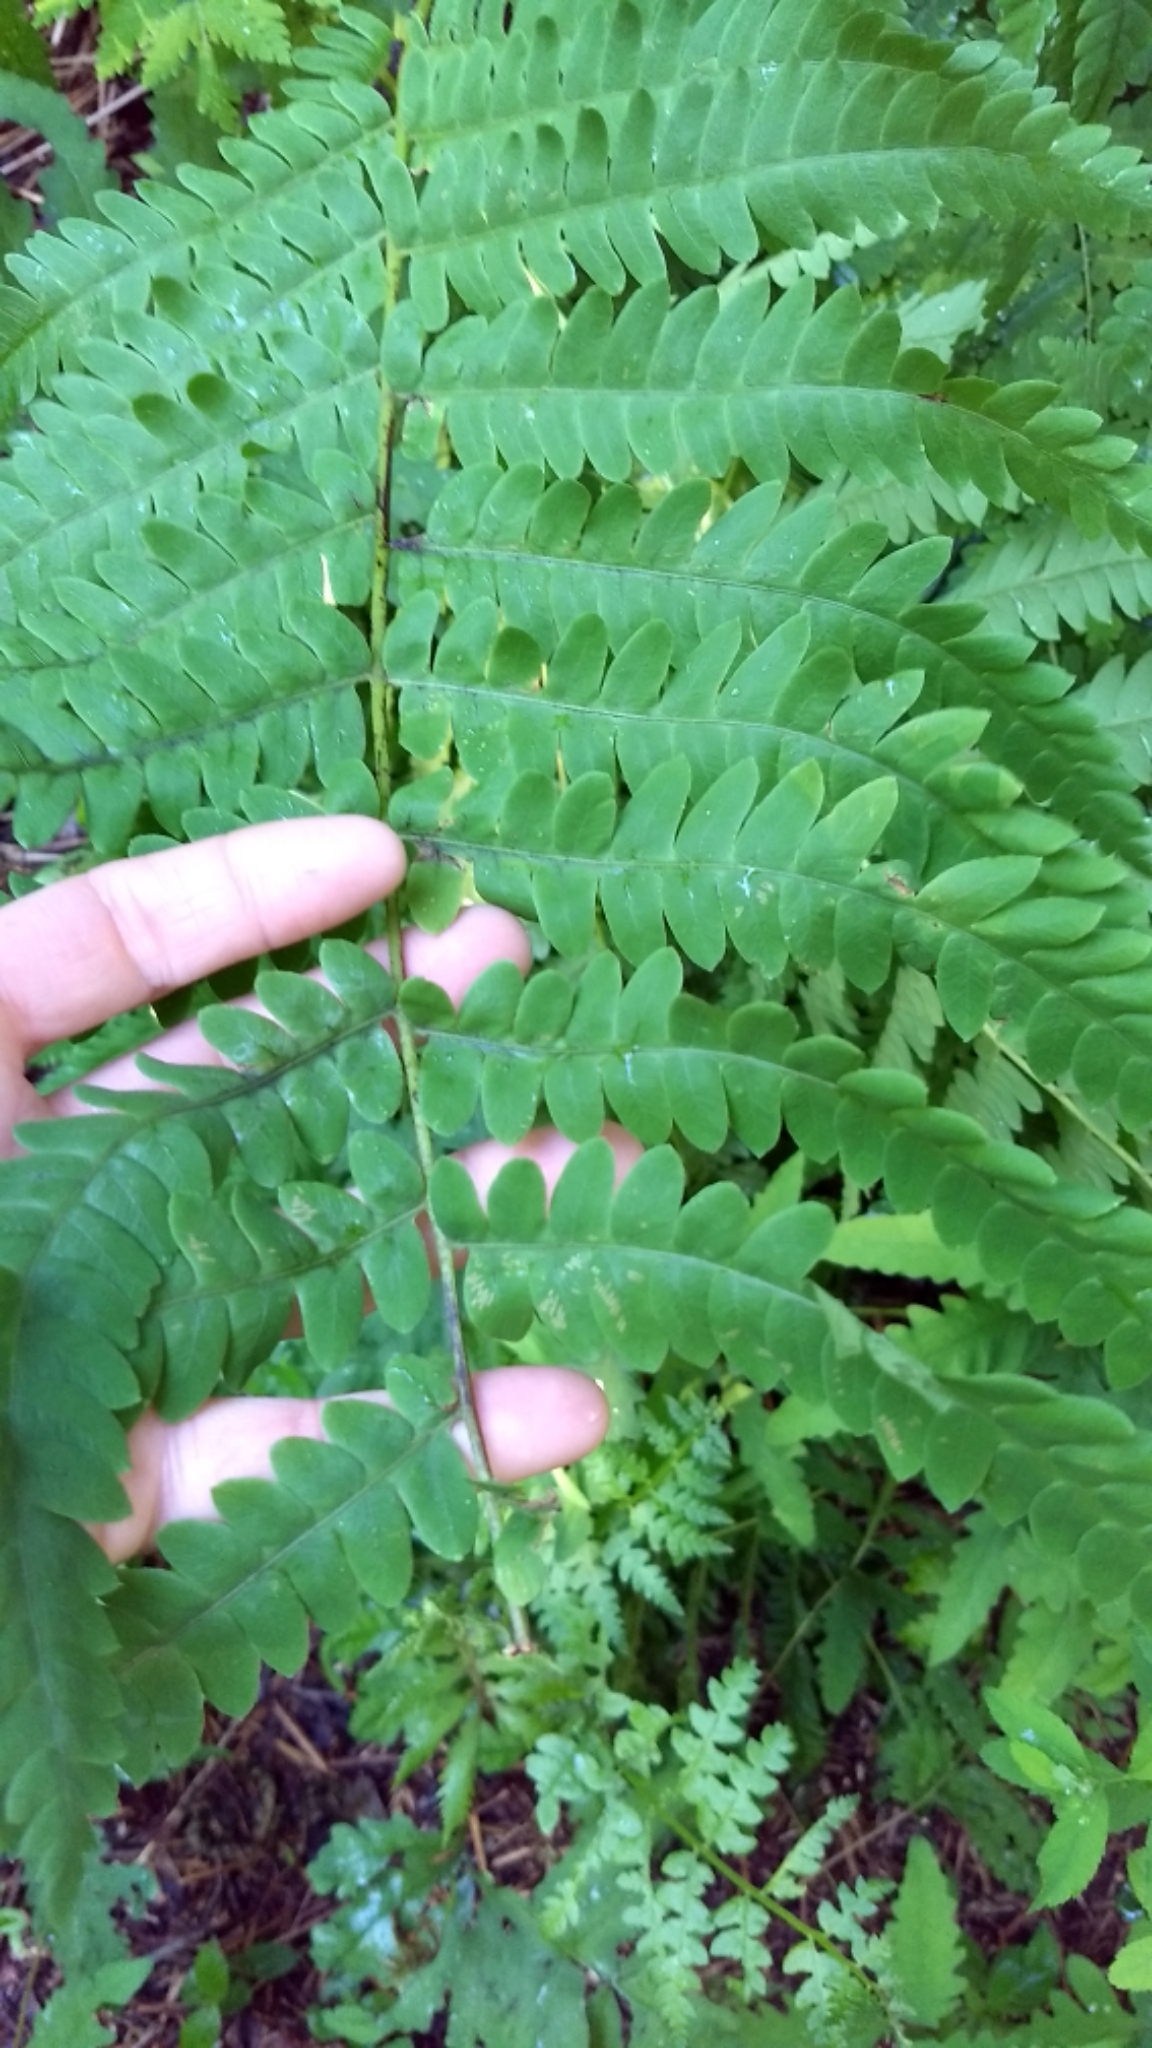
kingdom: Plantae
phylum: Tracheophyta
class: Polypodiopsida
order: Osmundales
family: Osmundaceae
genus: Claytosmunda
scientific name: Claytosmunda claytoniana
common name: Clayton's fern
